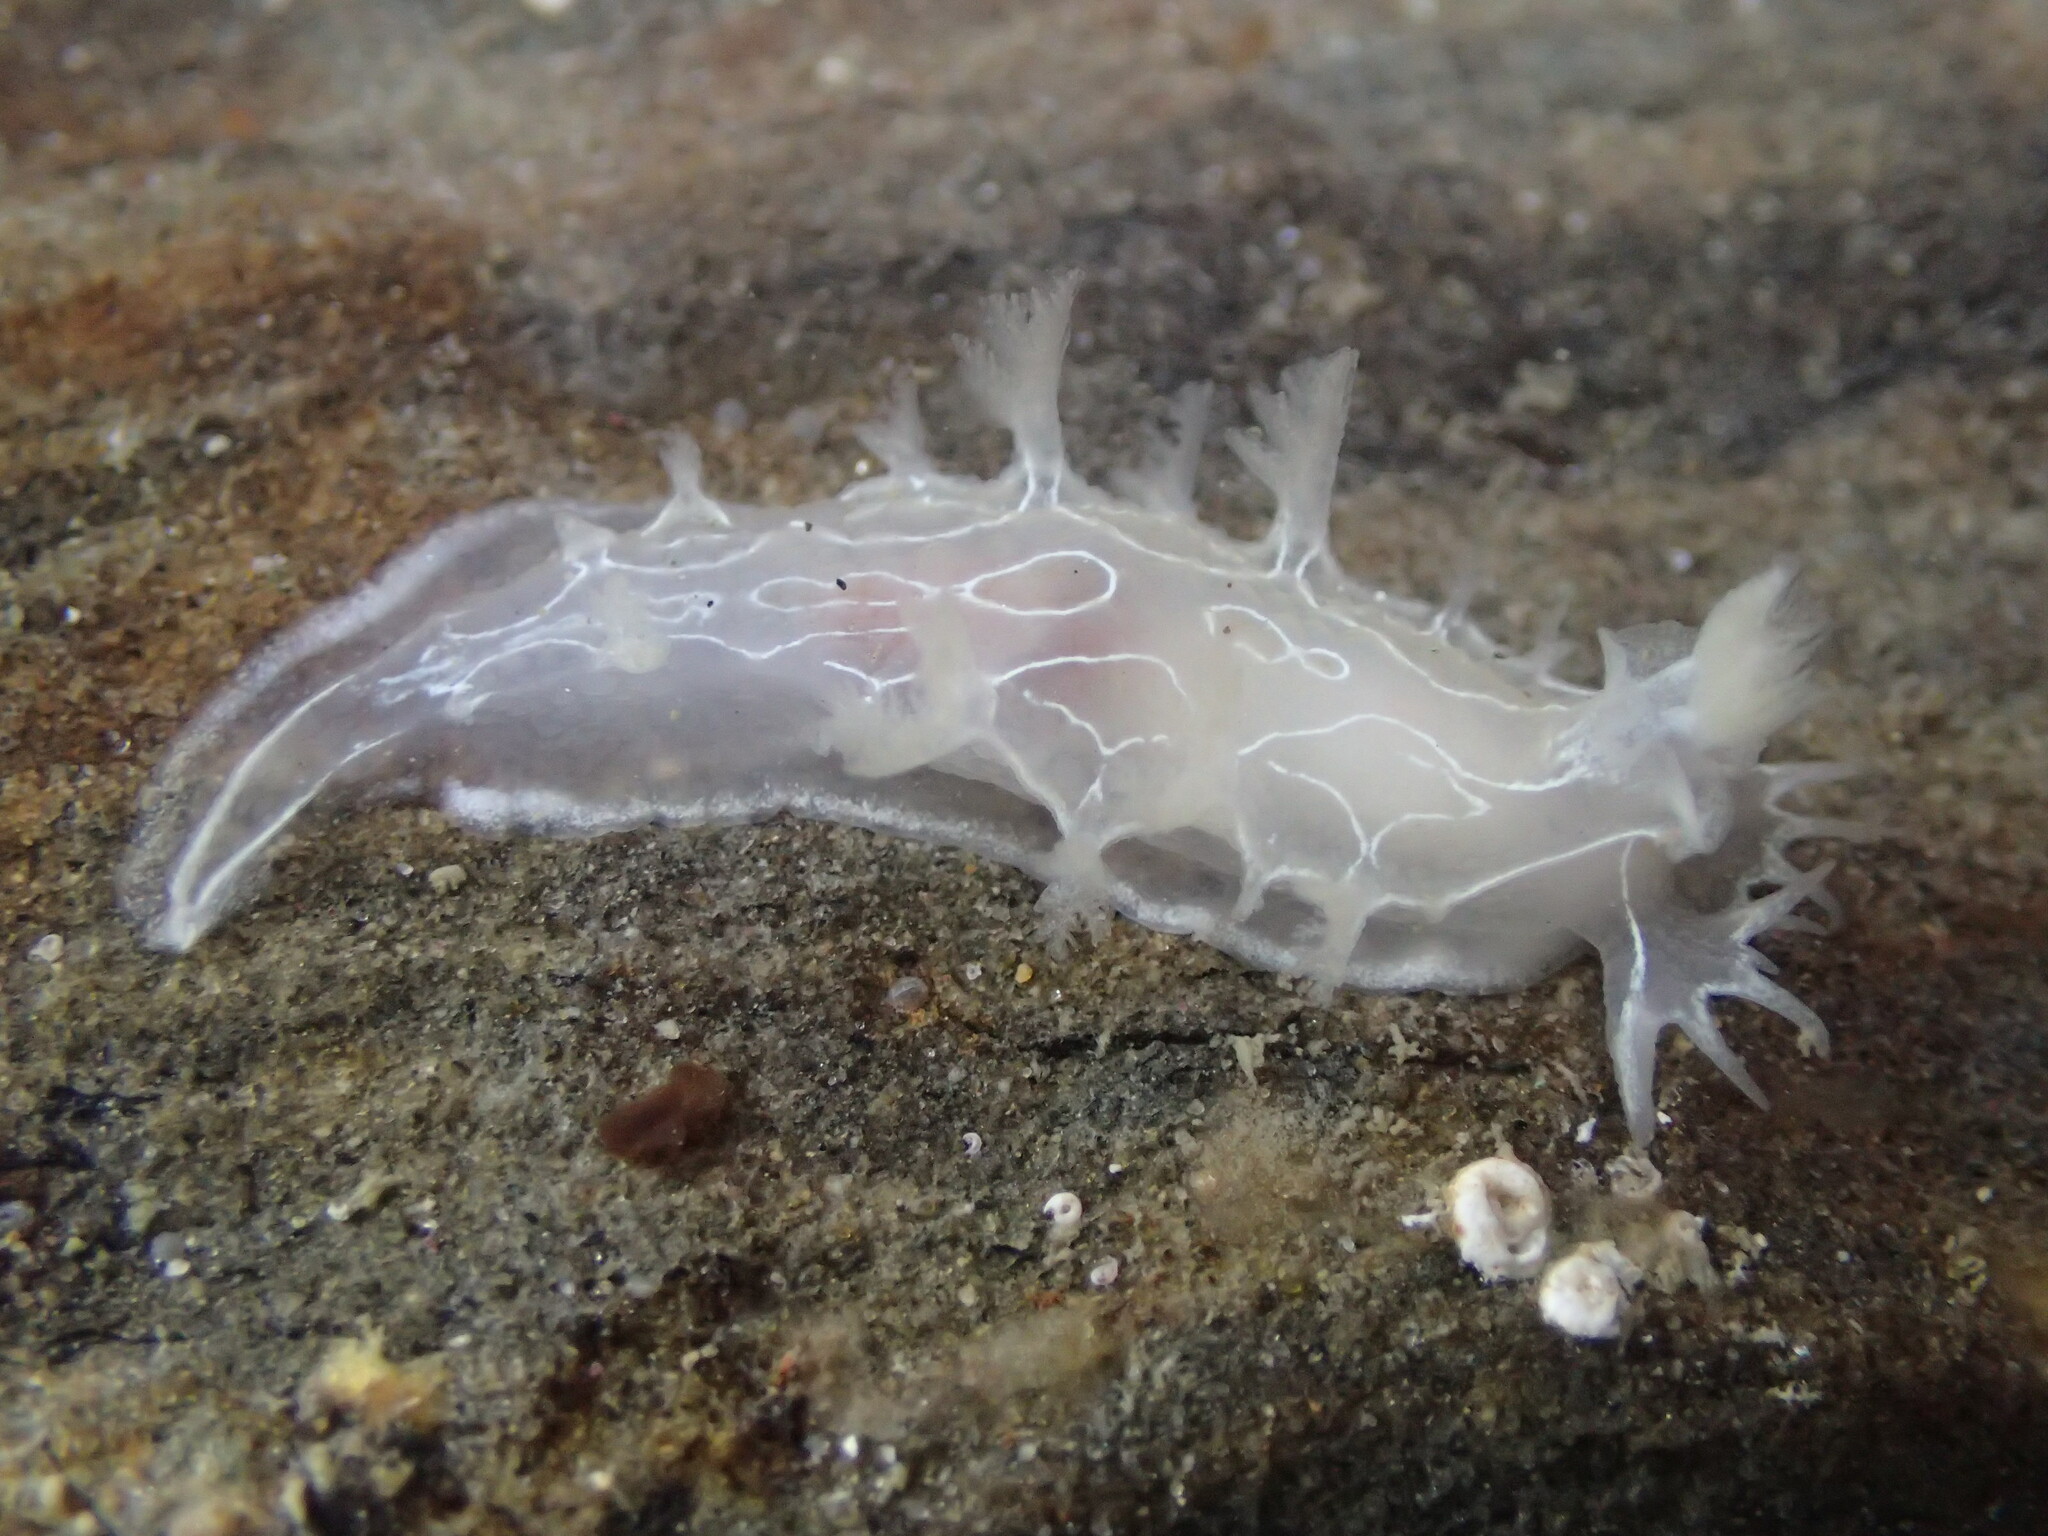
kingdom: Animalia
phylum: Mollusca
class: Gastropoda
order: Nudibranchia
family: Tritoniidae
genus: Tritonia
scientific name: Tritonia festiva
